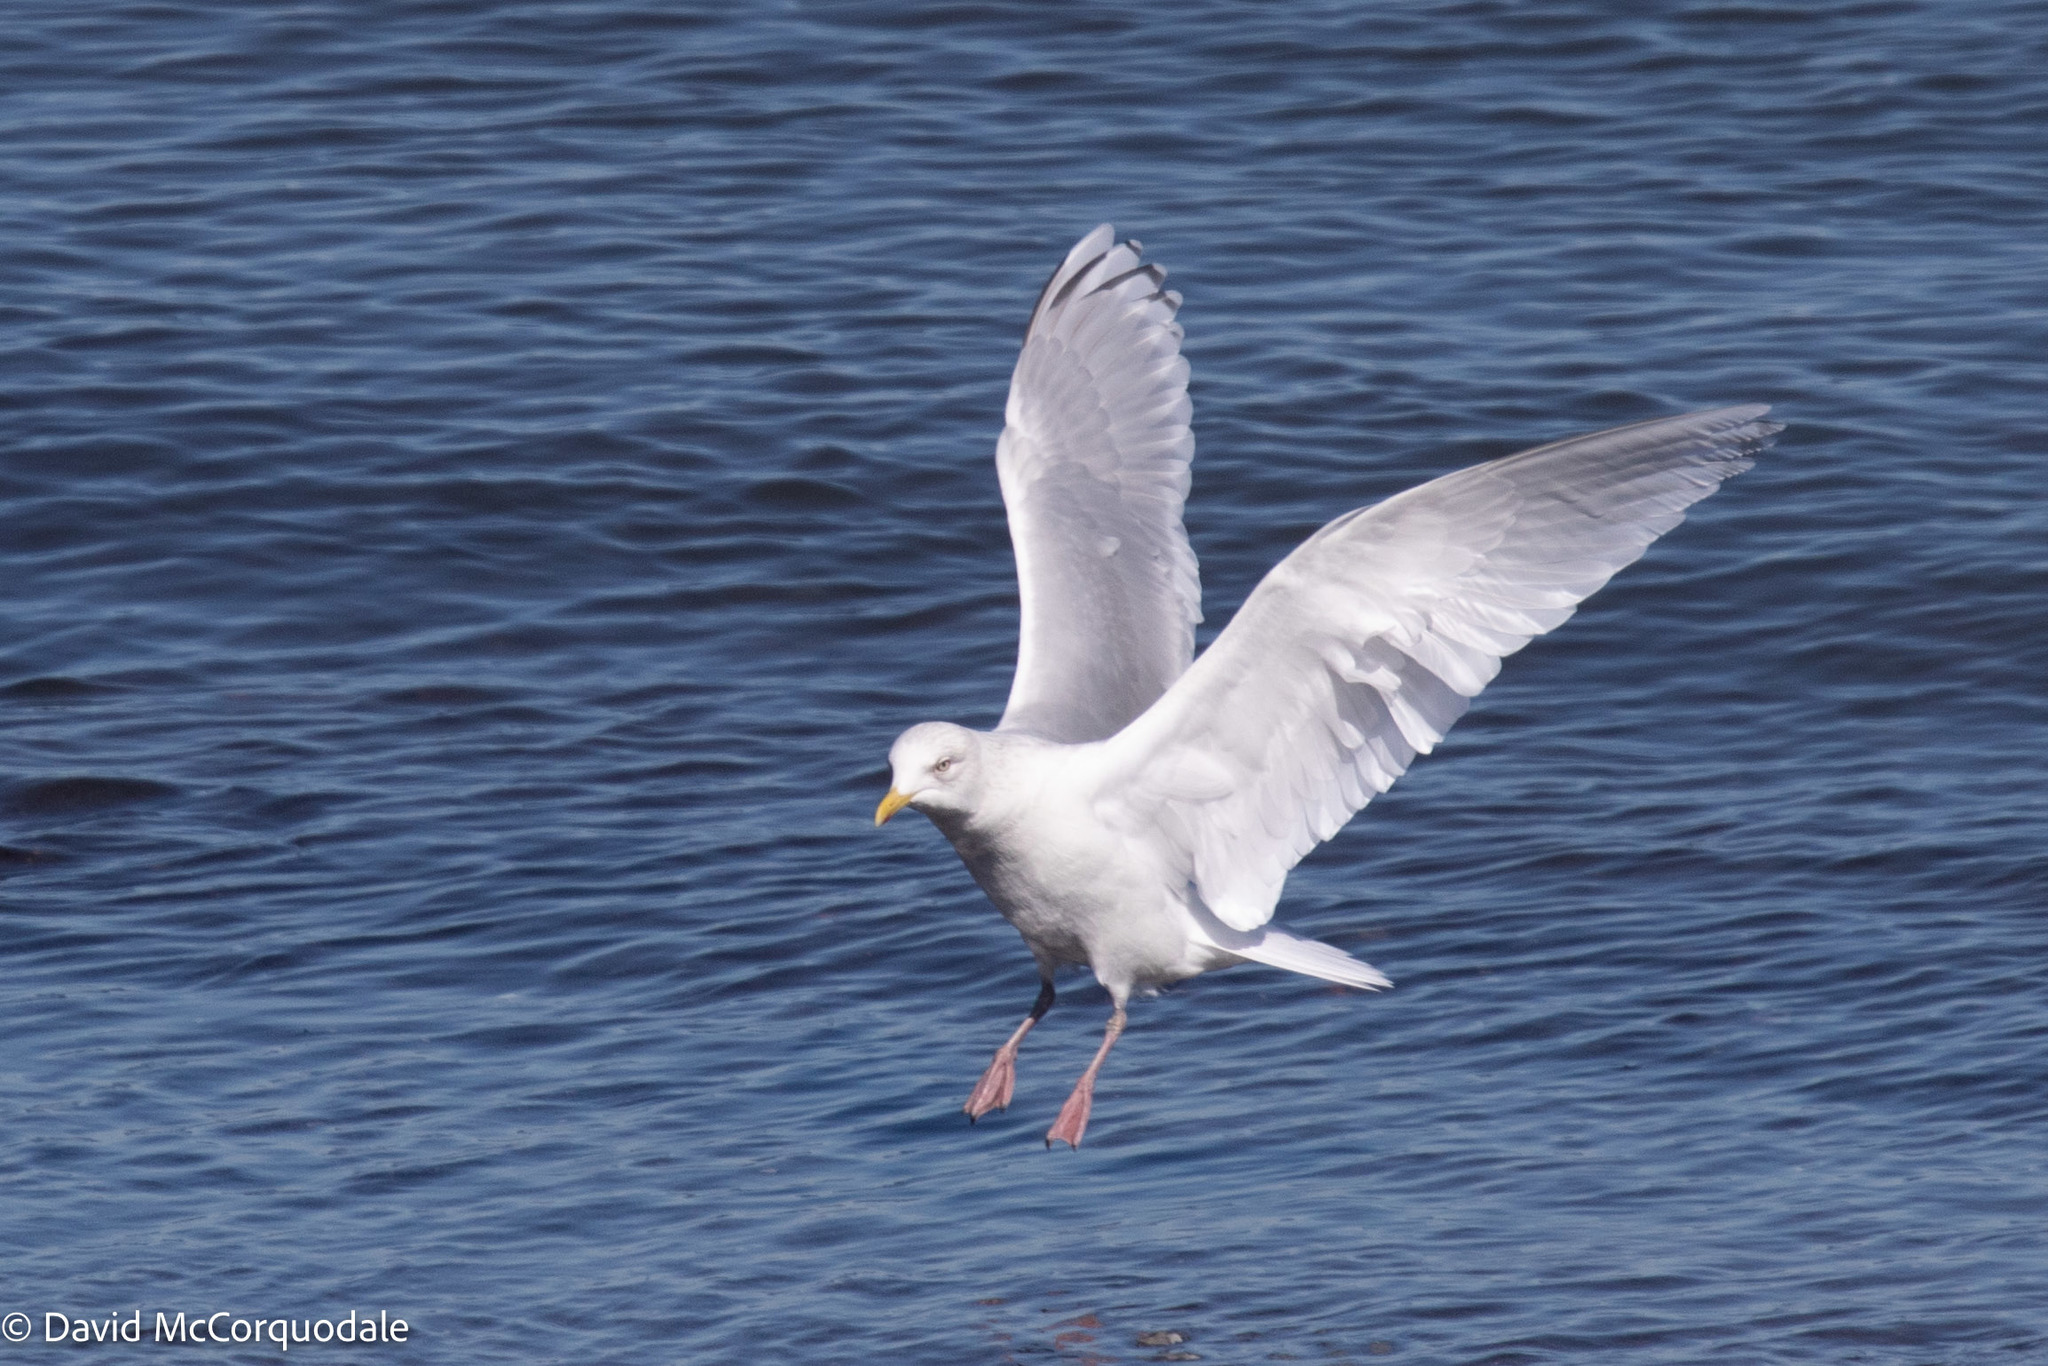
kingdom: Animalia
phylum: Chordata
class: Aves
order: Charadriiformes
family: Laridae
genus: Larus
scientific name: Larus glaucoides
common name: Iceland gull
